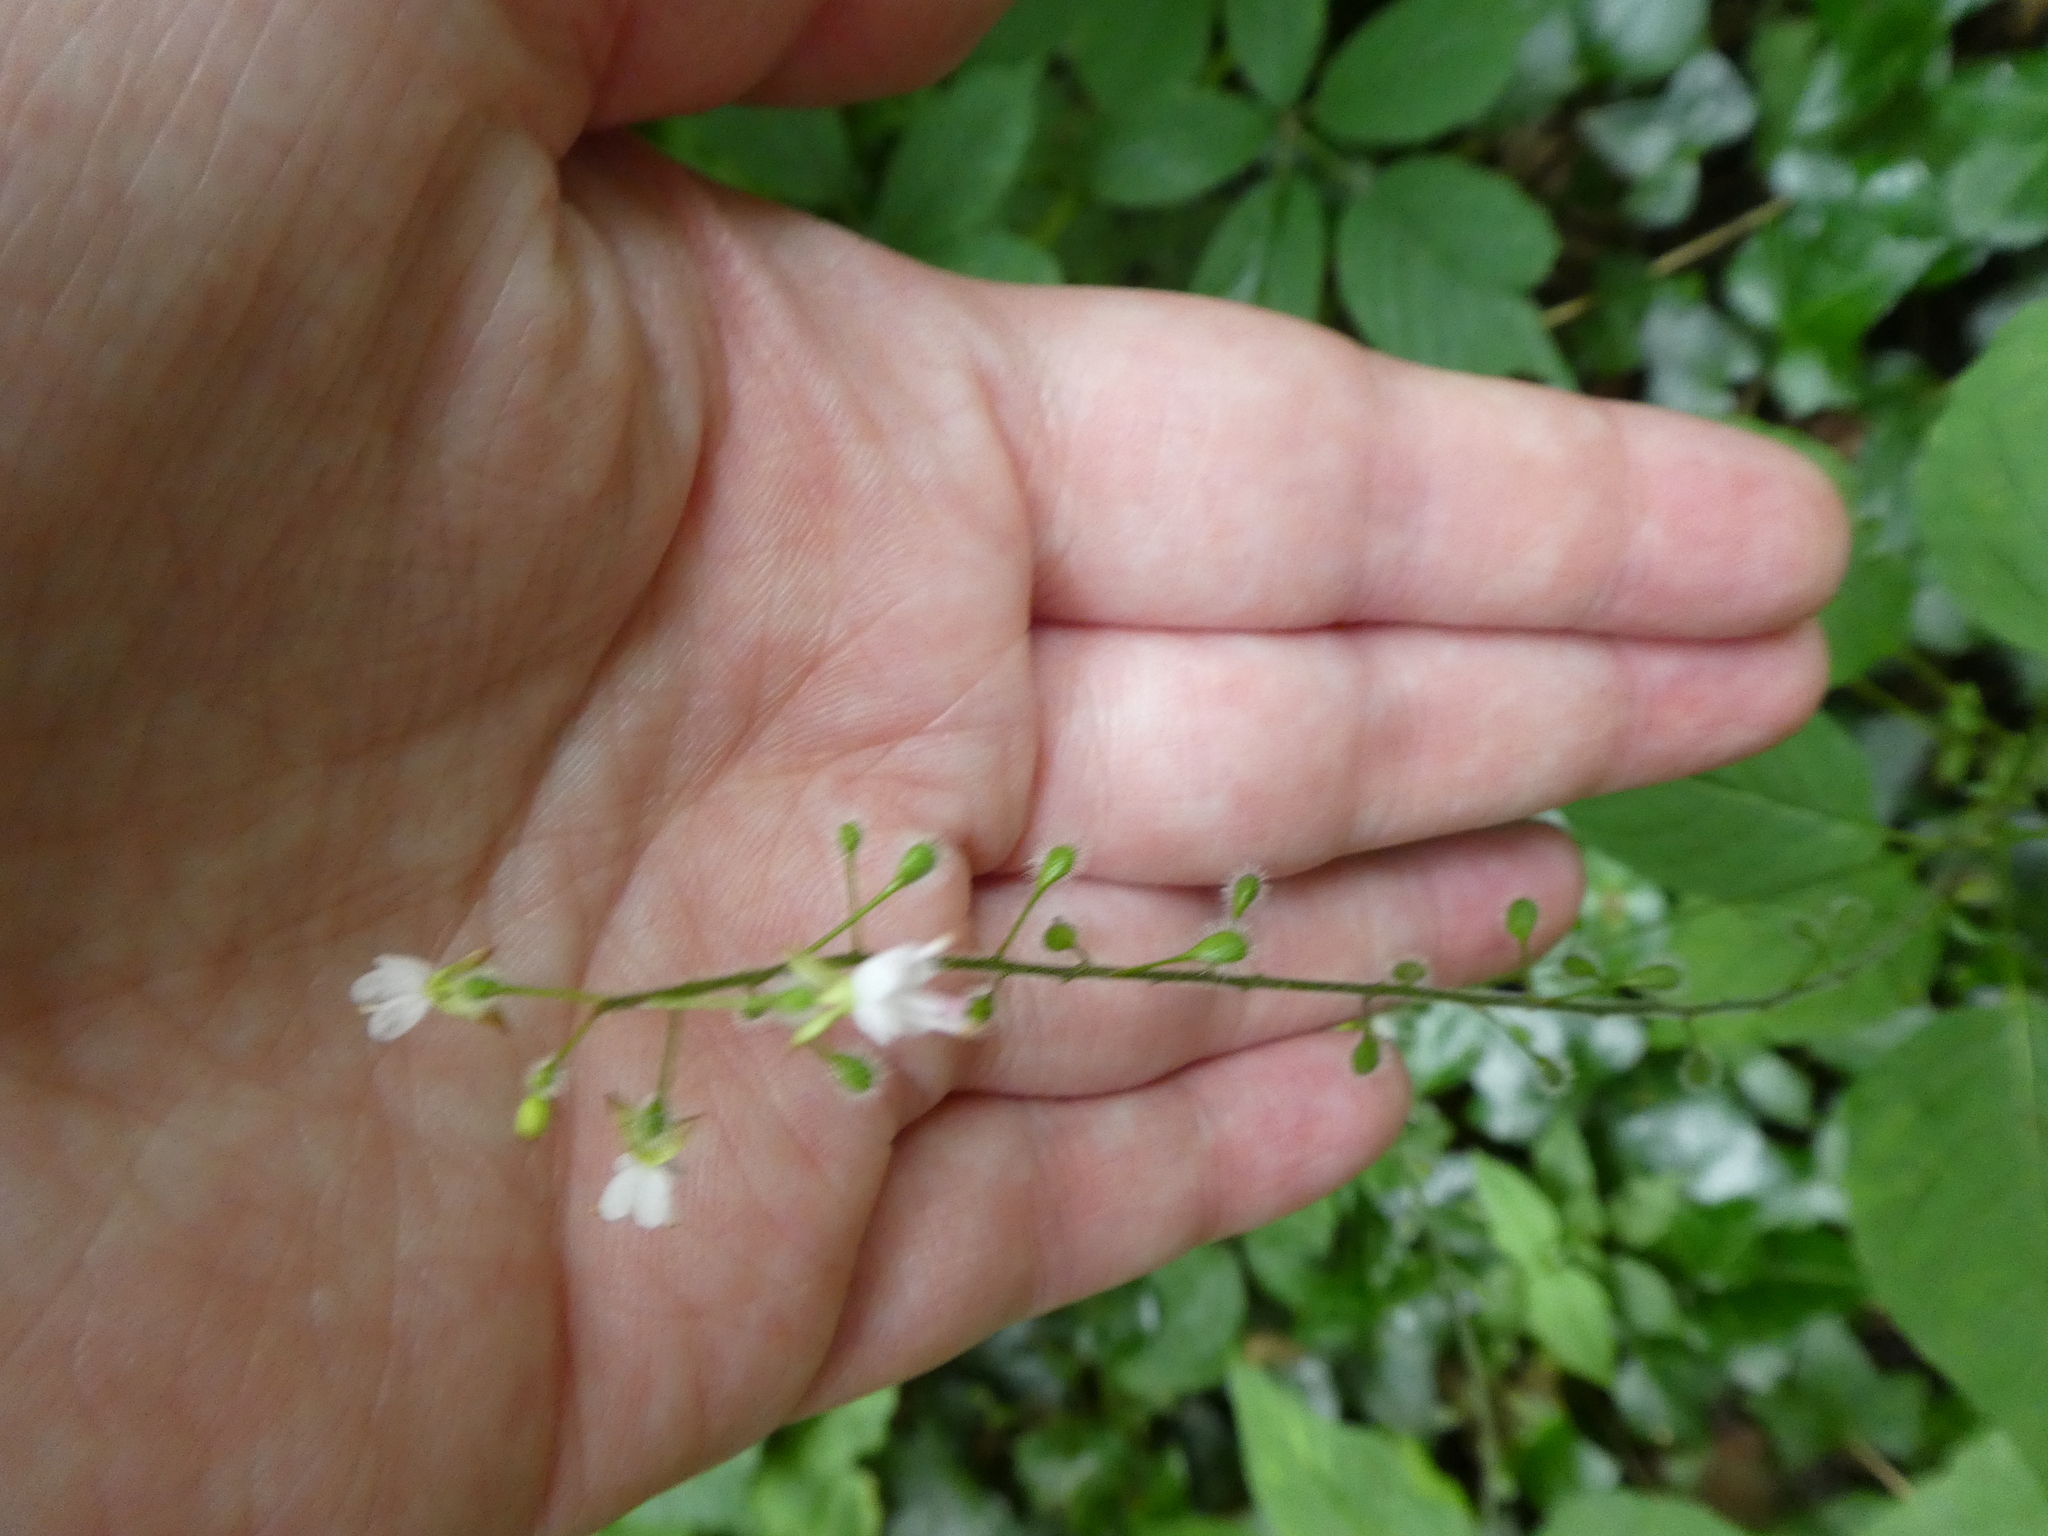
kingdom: Plantae
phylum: Tracheophyta
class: Magnoliopsida
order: Myrtales
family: Onagraceae
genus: Circaea
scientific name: Circaea lutetiana
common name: Enchanter's-nightshade
